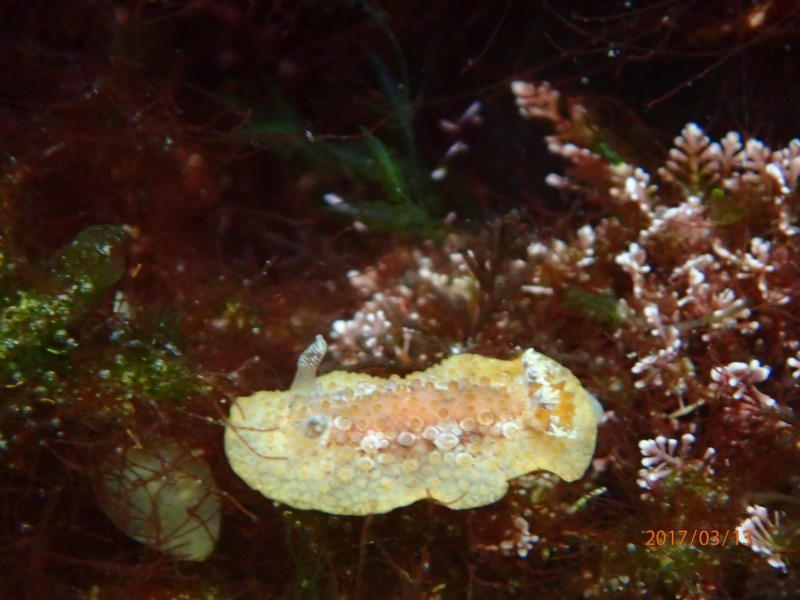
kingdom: Animalia
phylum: Mollusca
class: Gastropoda
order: Nudibranchia
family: Discodorididae
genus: Carminodoris
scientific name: Carminodoris nodulosa
